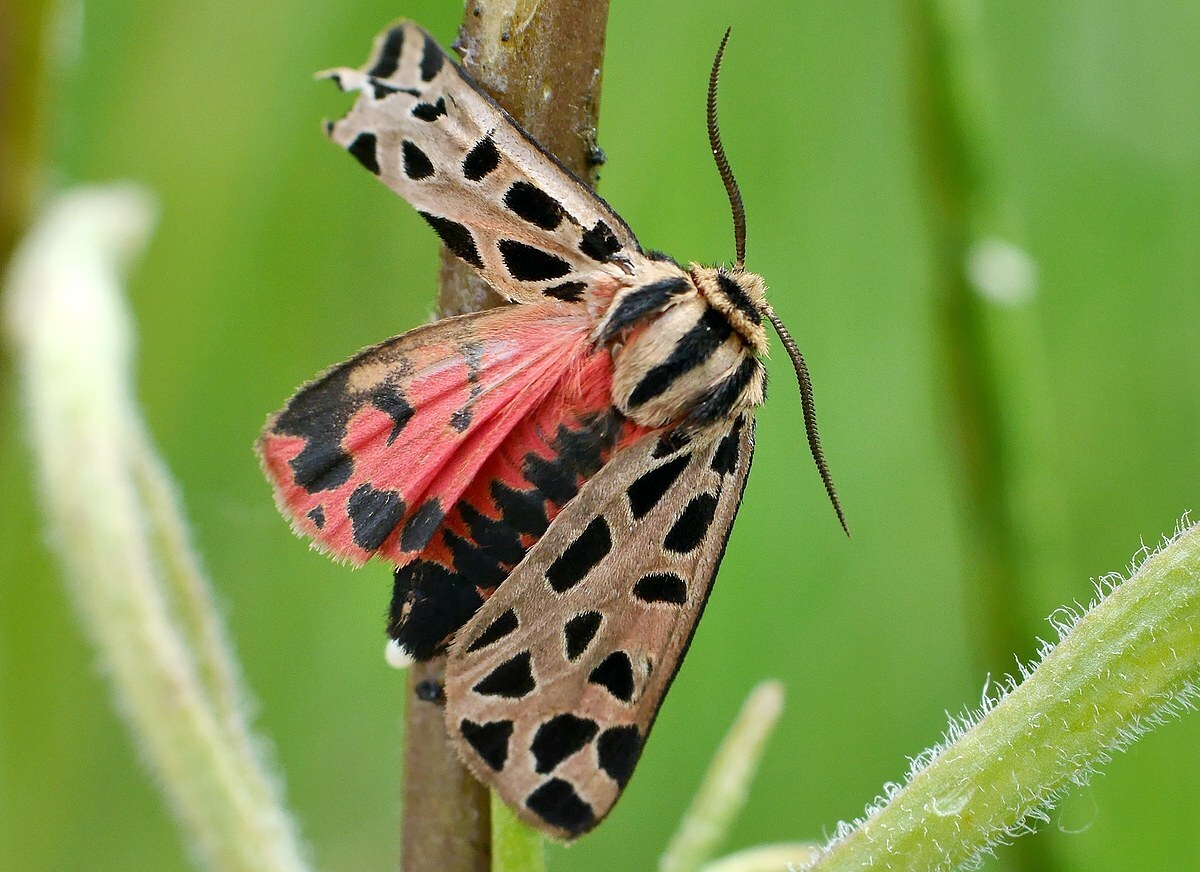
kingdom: Animalia
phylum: Arthropoda
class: Insecta
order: Lepidoptera
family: Erebidae
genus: Chelis
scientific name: Chelis maculosa
